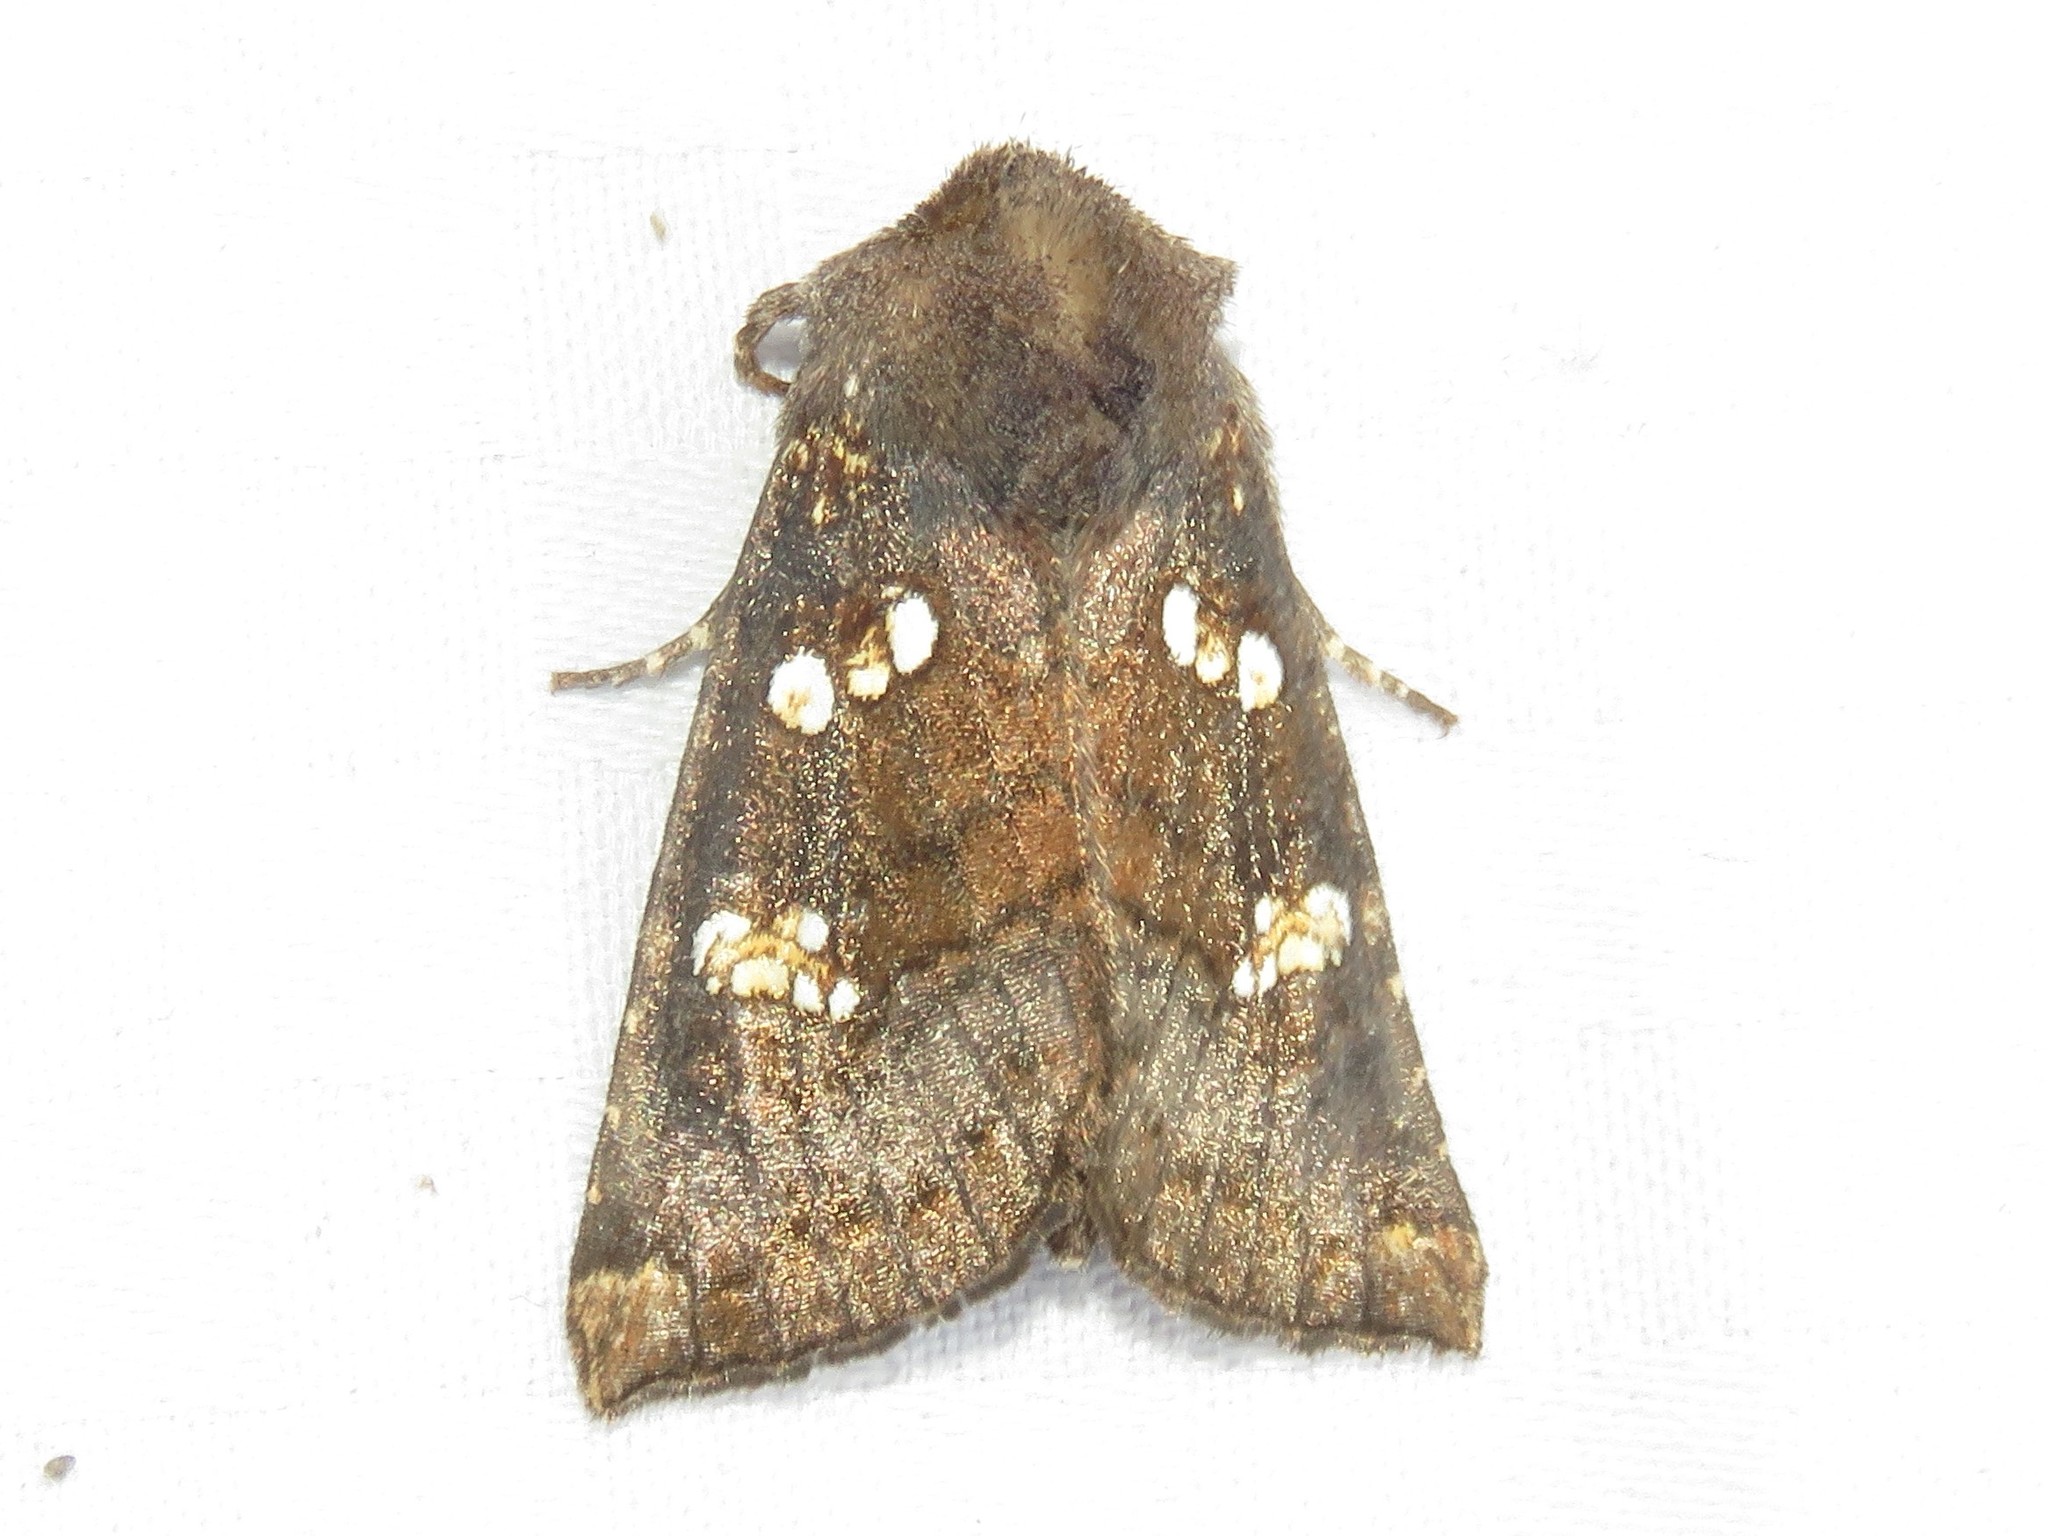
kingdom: Animalia
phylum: Arthropoda
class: Insecta
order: Lepidoptera
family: Noctuidae
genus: Papaipema
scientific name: Papaipema unimoda
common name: Meadow rue borer moth
